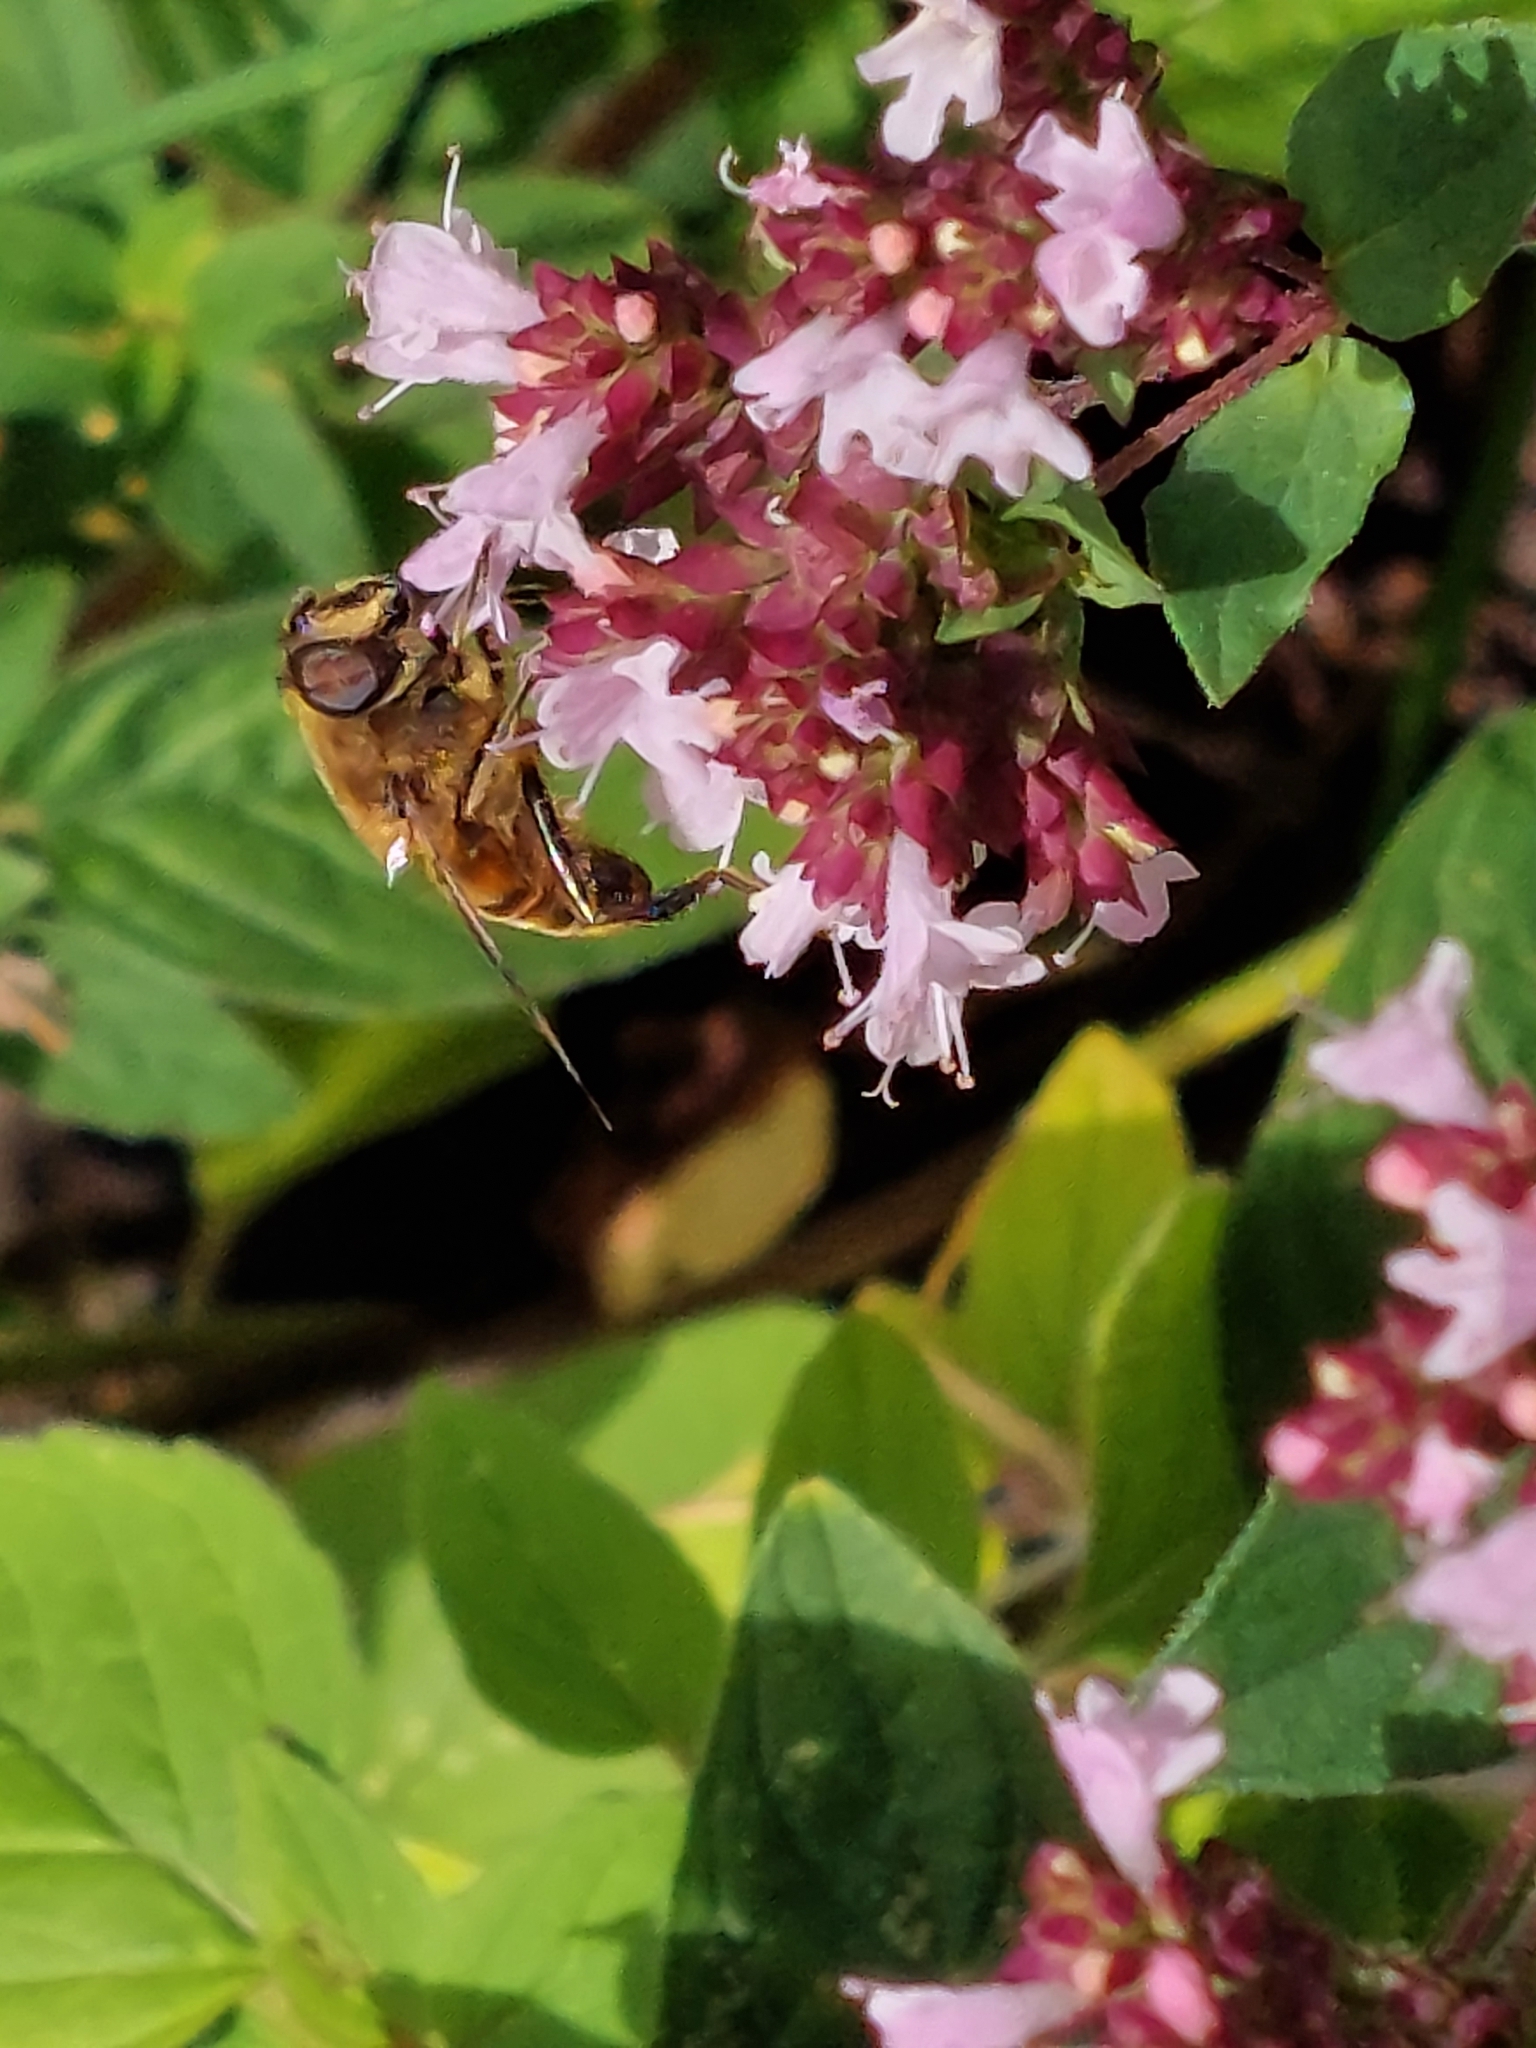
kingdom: Animalia
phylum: Arthropoda
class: Insecta
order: Diptera
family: Syrphidae
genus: Eristalis
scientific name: Eristalis tenax
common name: Drone fly
